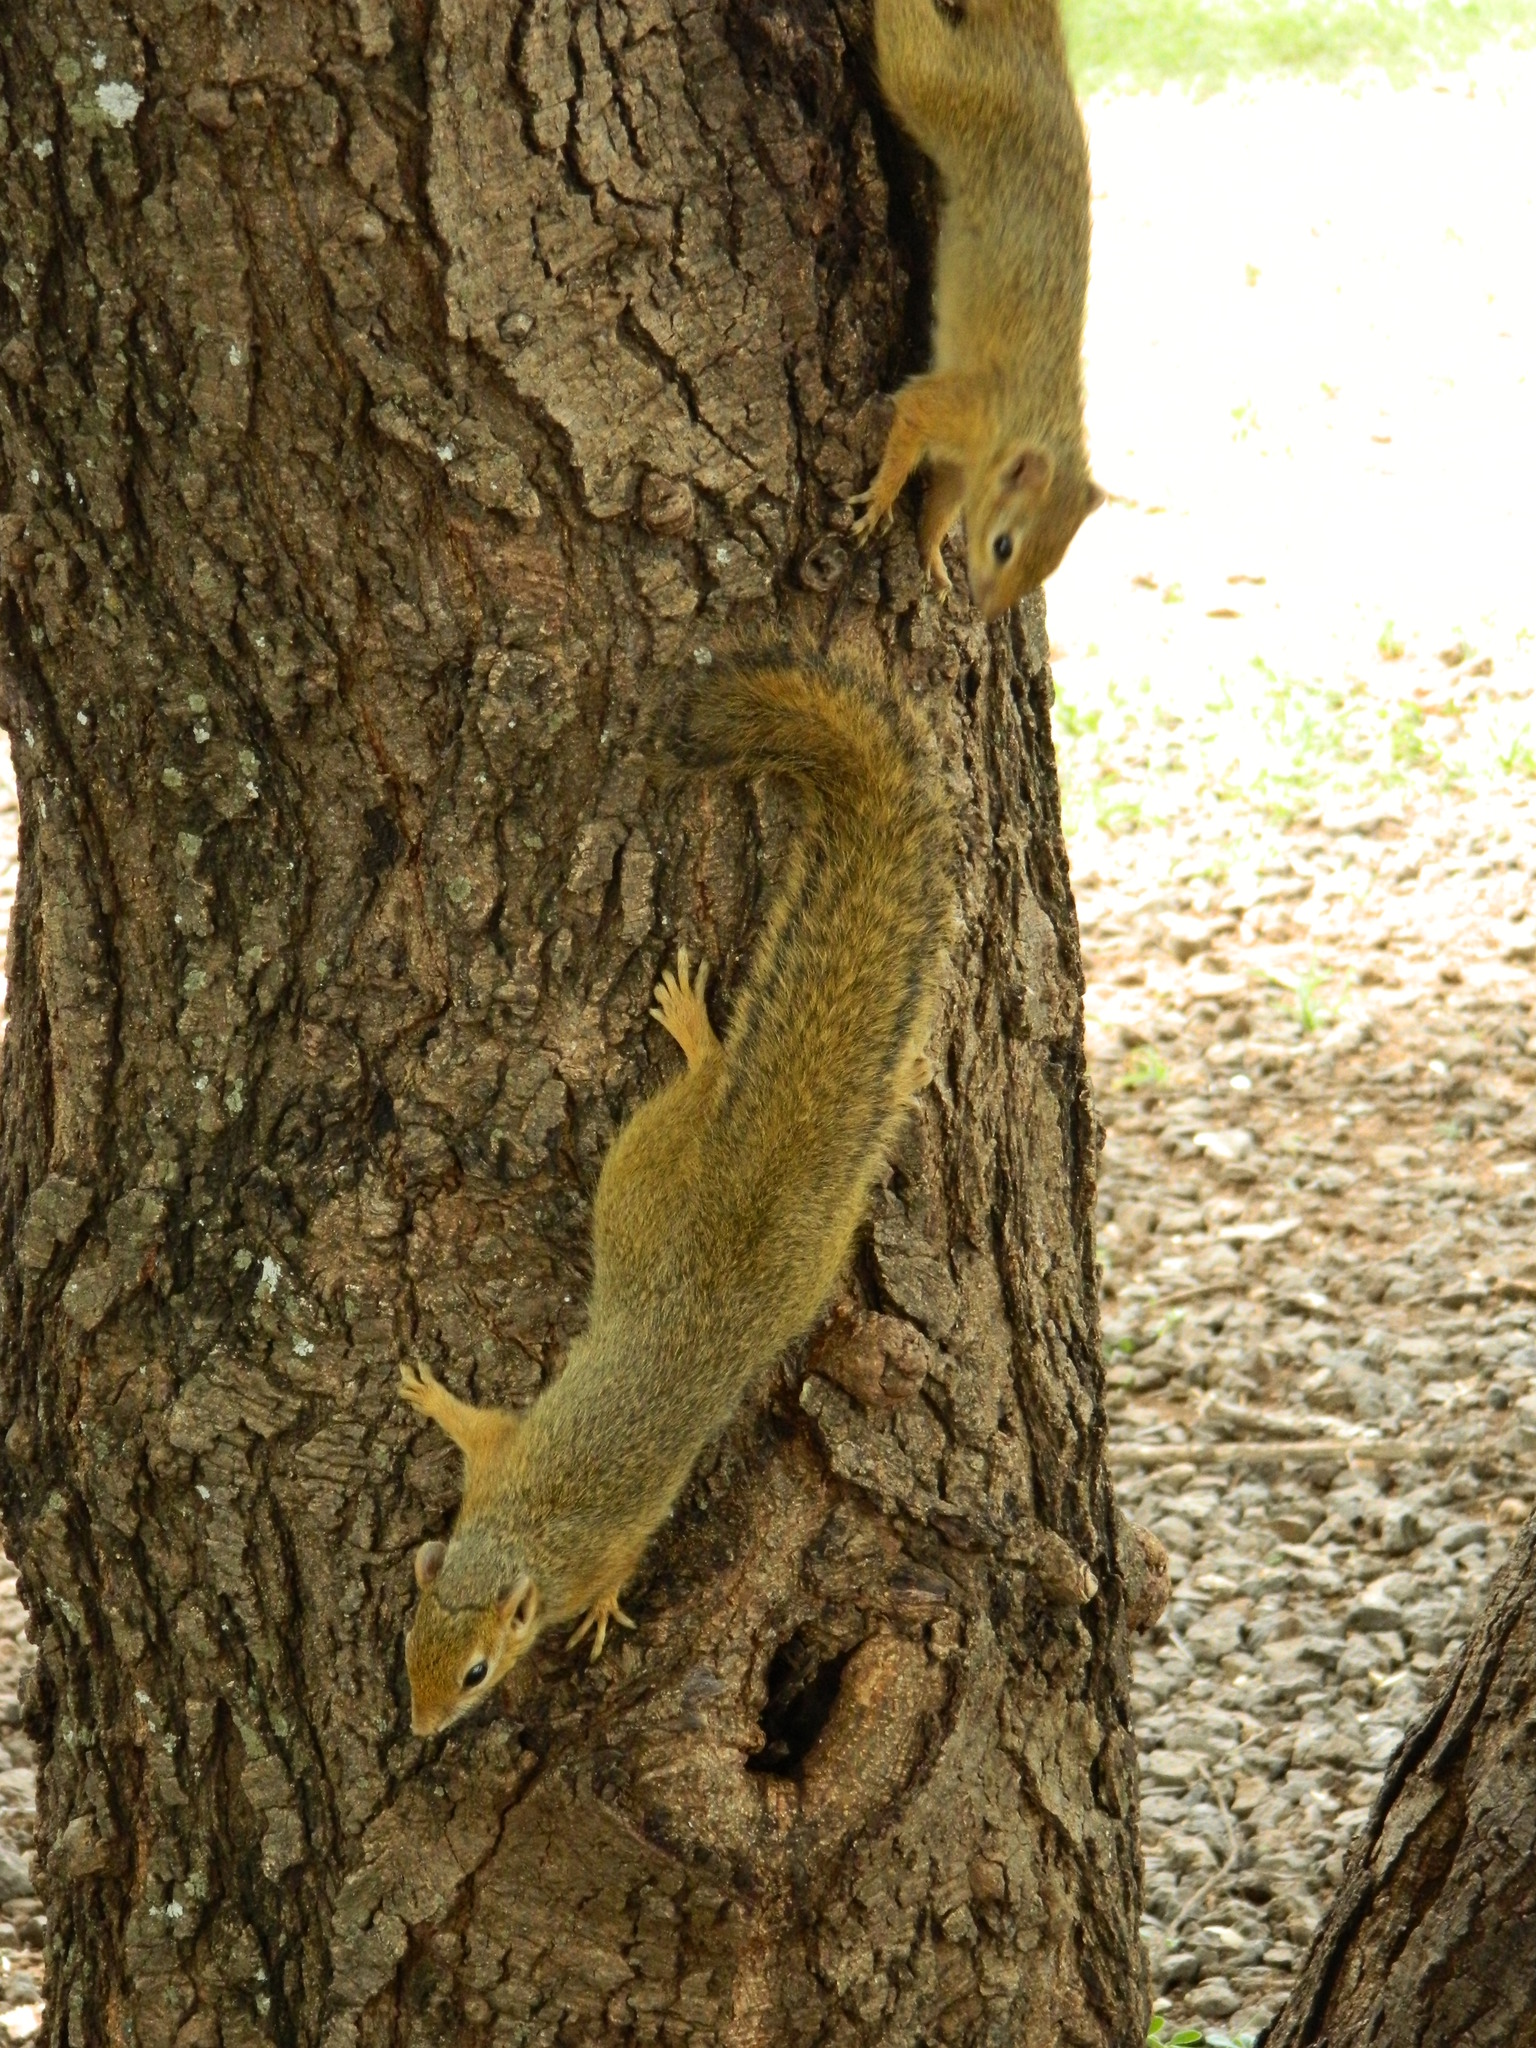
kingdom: Animalia
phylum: Chordata
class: Mammalia
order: Rodentia
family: Sciuridae
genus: Paraxerus
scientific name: Paraxerus ochraceus
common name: Ochre bush squirrel
